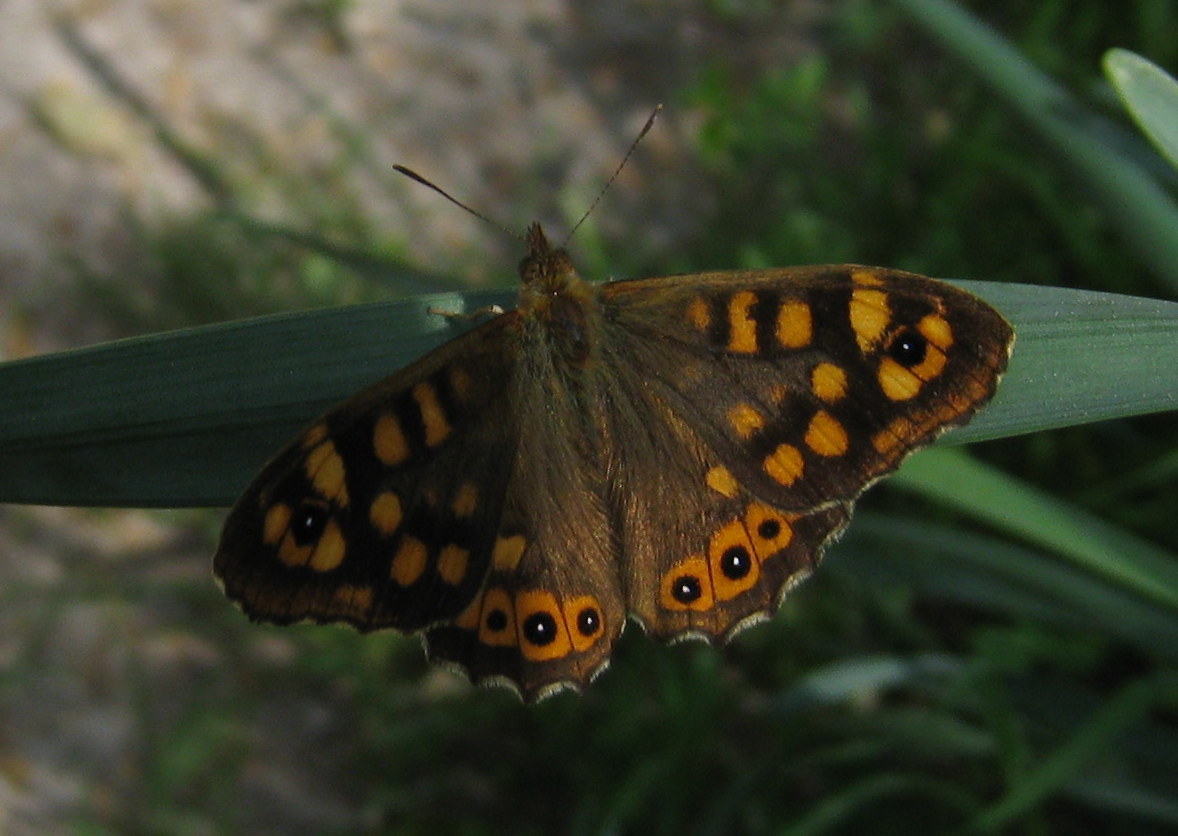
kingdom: Animalia
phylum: Arthropoda
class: Insecta
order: Lepidoptera
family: Nymphalidae
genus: Pararge
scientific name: Pararge aegeria
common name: Speckled wood
